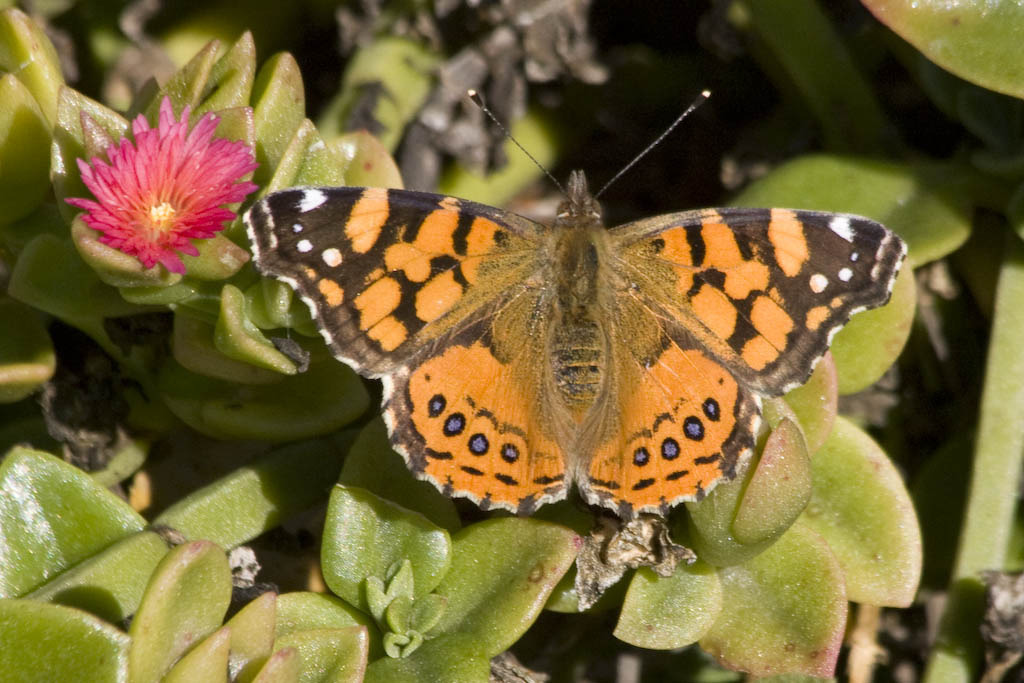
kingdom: Animalia
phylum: Arthropoda
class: Insecta
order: Lepidoptera
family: Nymphalidae
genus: Vanessa
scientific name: Vanessa annabella
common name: West coast lady
